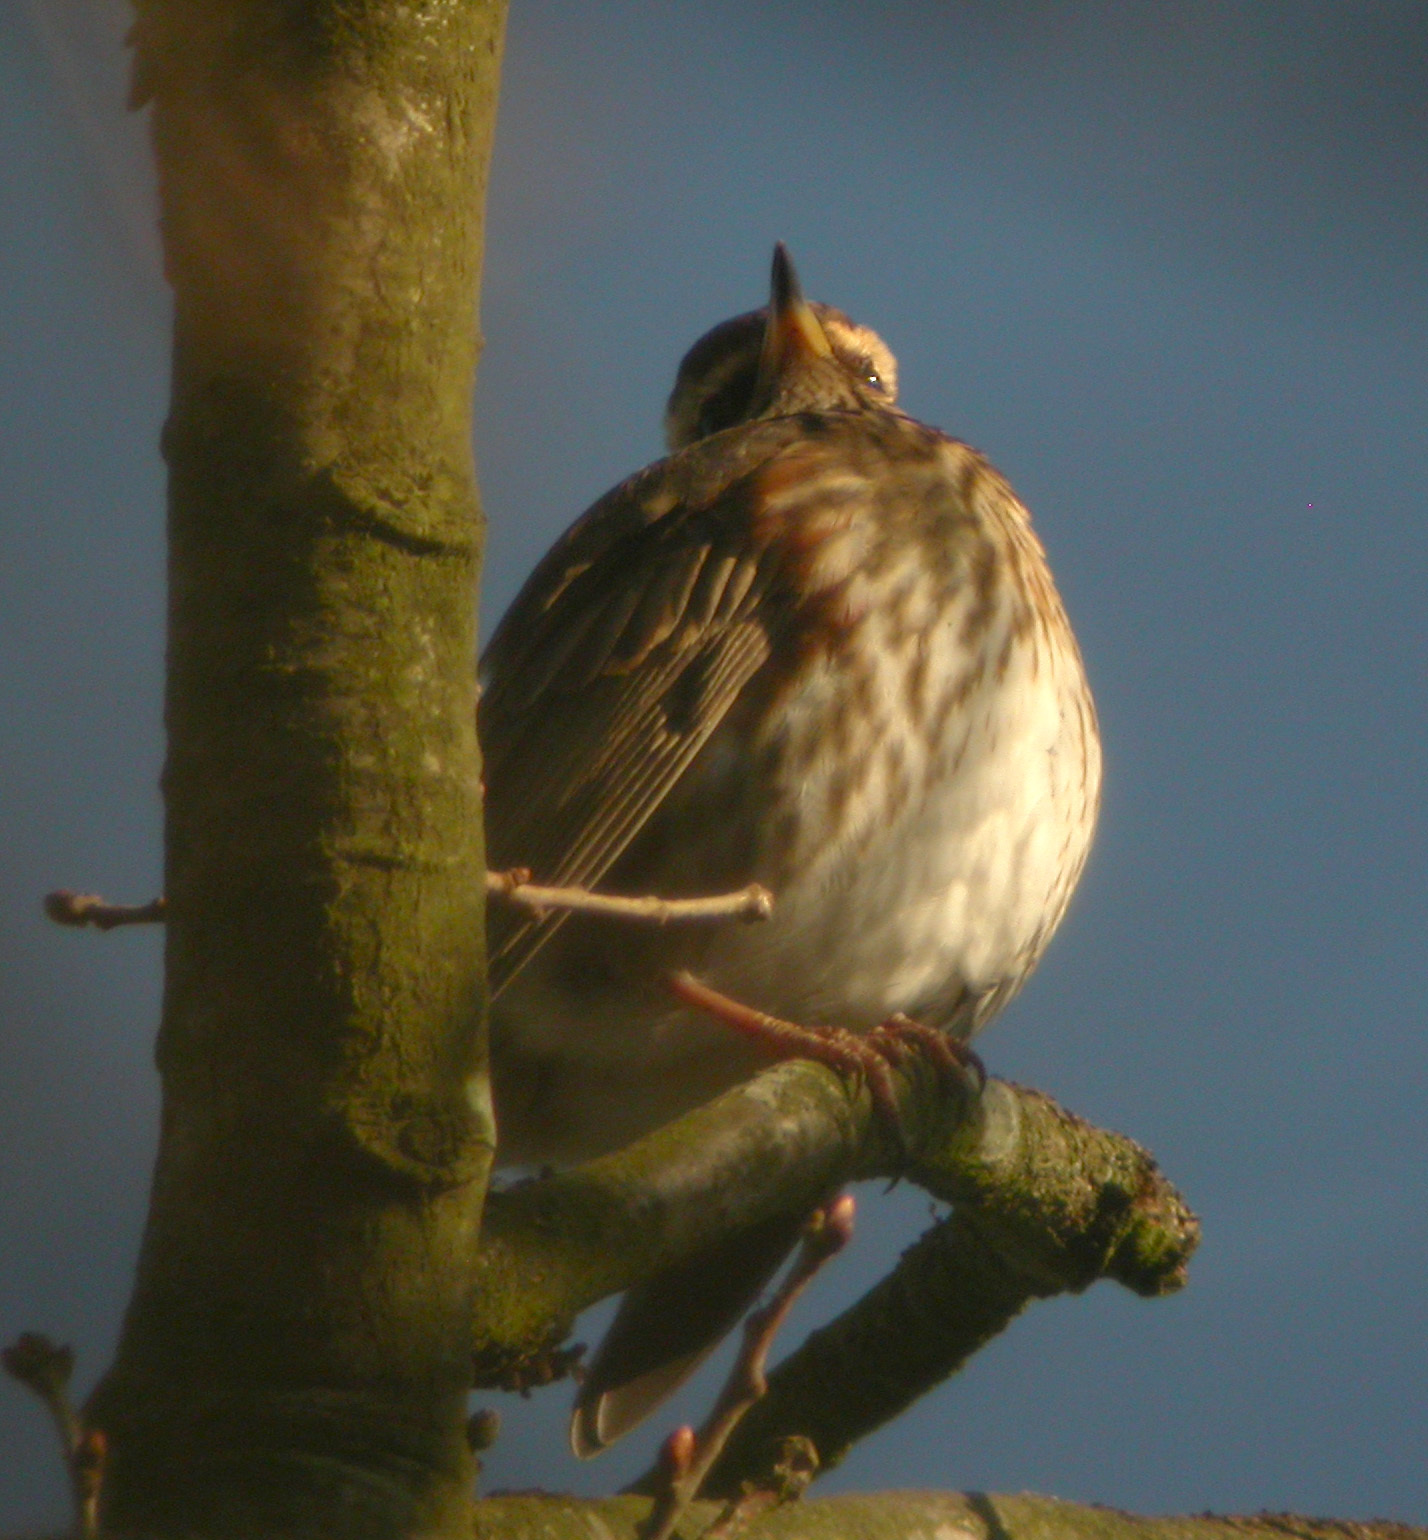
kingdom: Animalia
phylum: Chordata
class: Aves
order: Passeriformes
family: Turdidae
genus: Turdus
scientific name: Turdus iliacus
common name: Redwing
